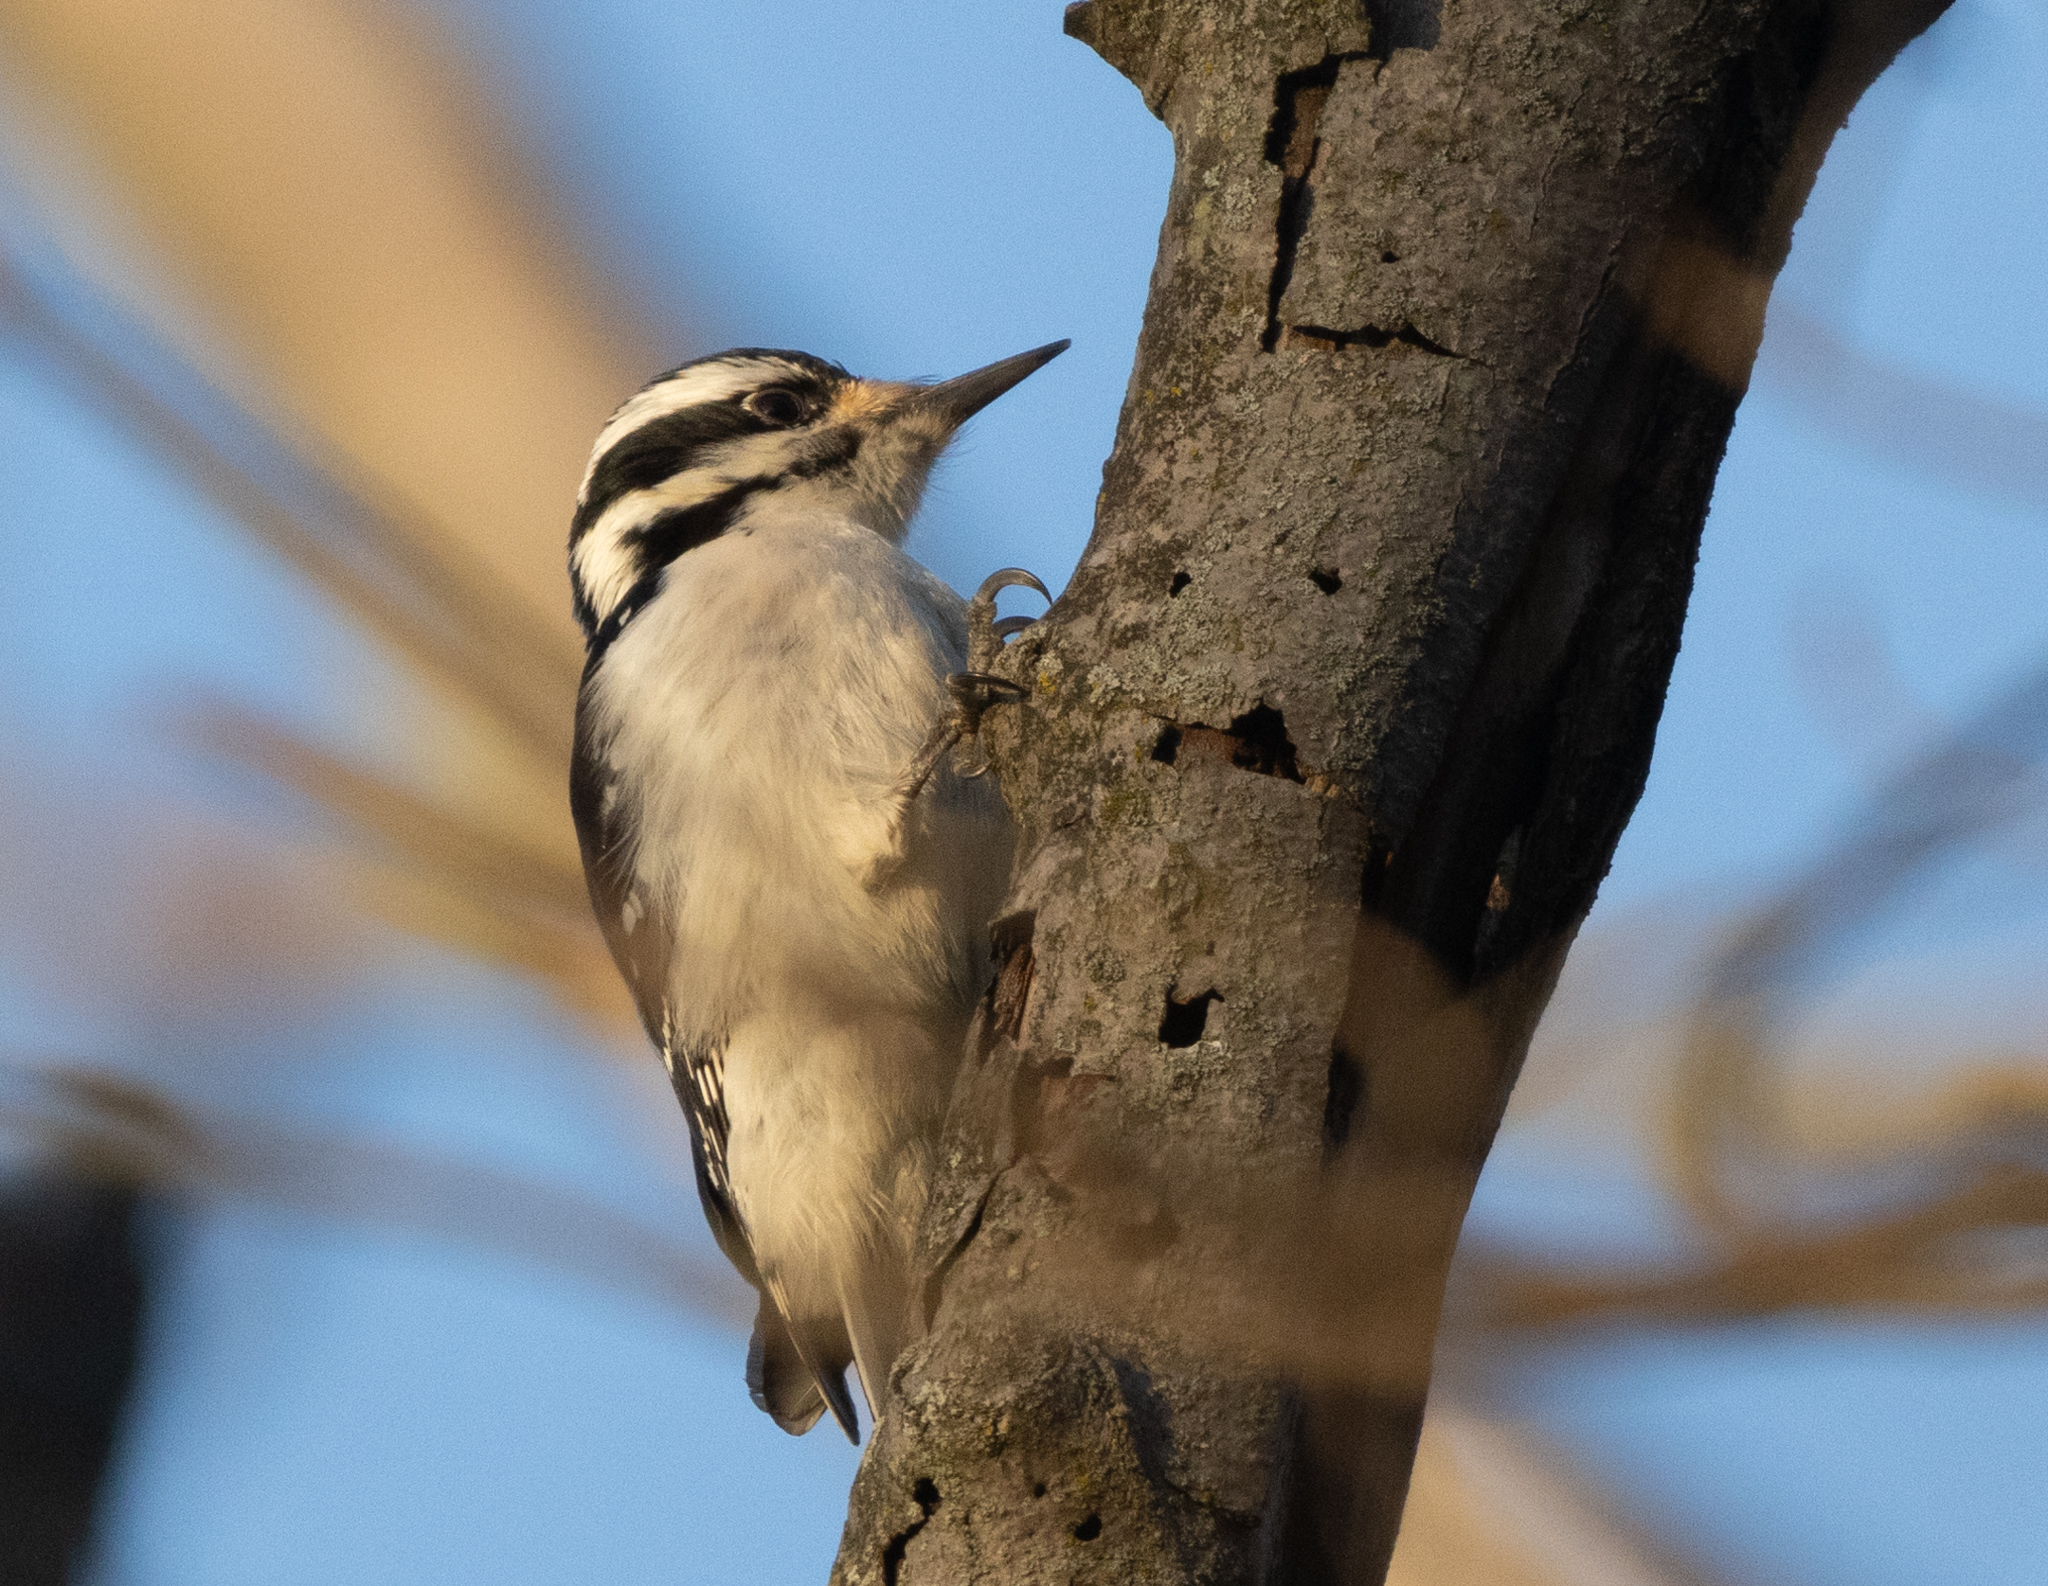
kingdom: Animalia
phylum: Chordata
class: Aves
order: Piciformes
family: Picidae
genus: Leuconotopicus
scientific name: Leuconotopicus villosus
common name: Hairy woodpecker
